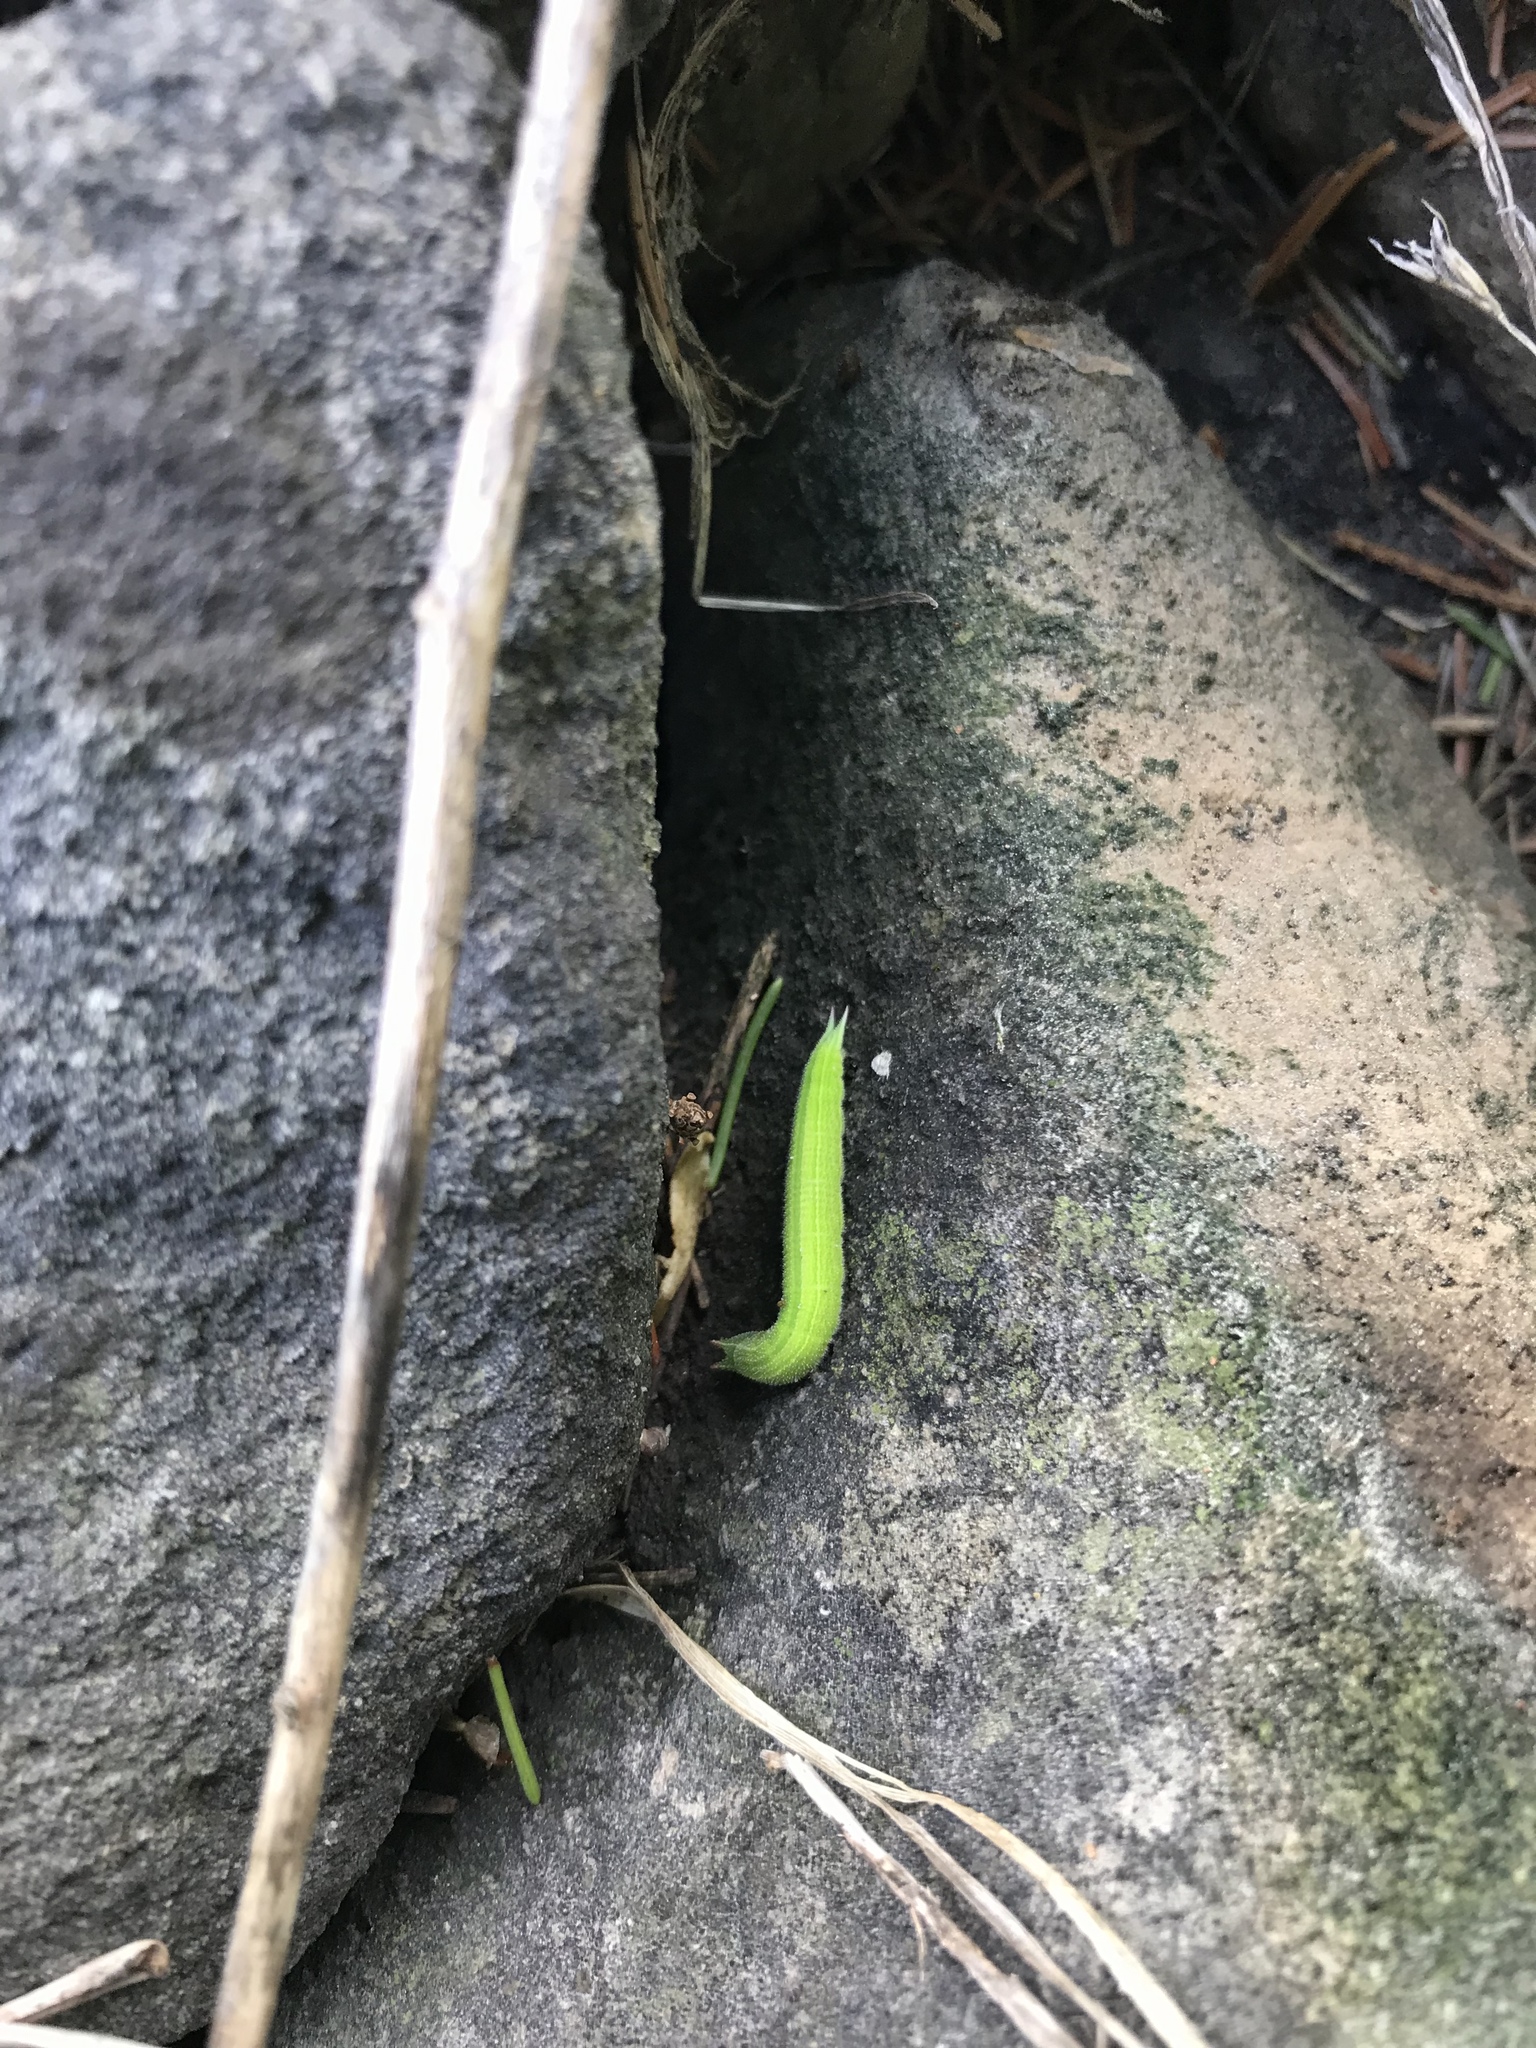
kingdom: Animalia
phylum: Arthropoda
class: Insecta
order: Lepidoptera
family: Nymphalidae
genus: Lethe
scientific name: Lethe anthedon
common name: Northern pearly-eye
